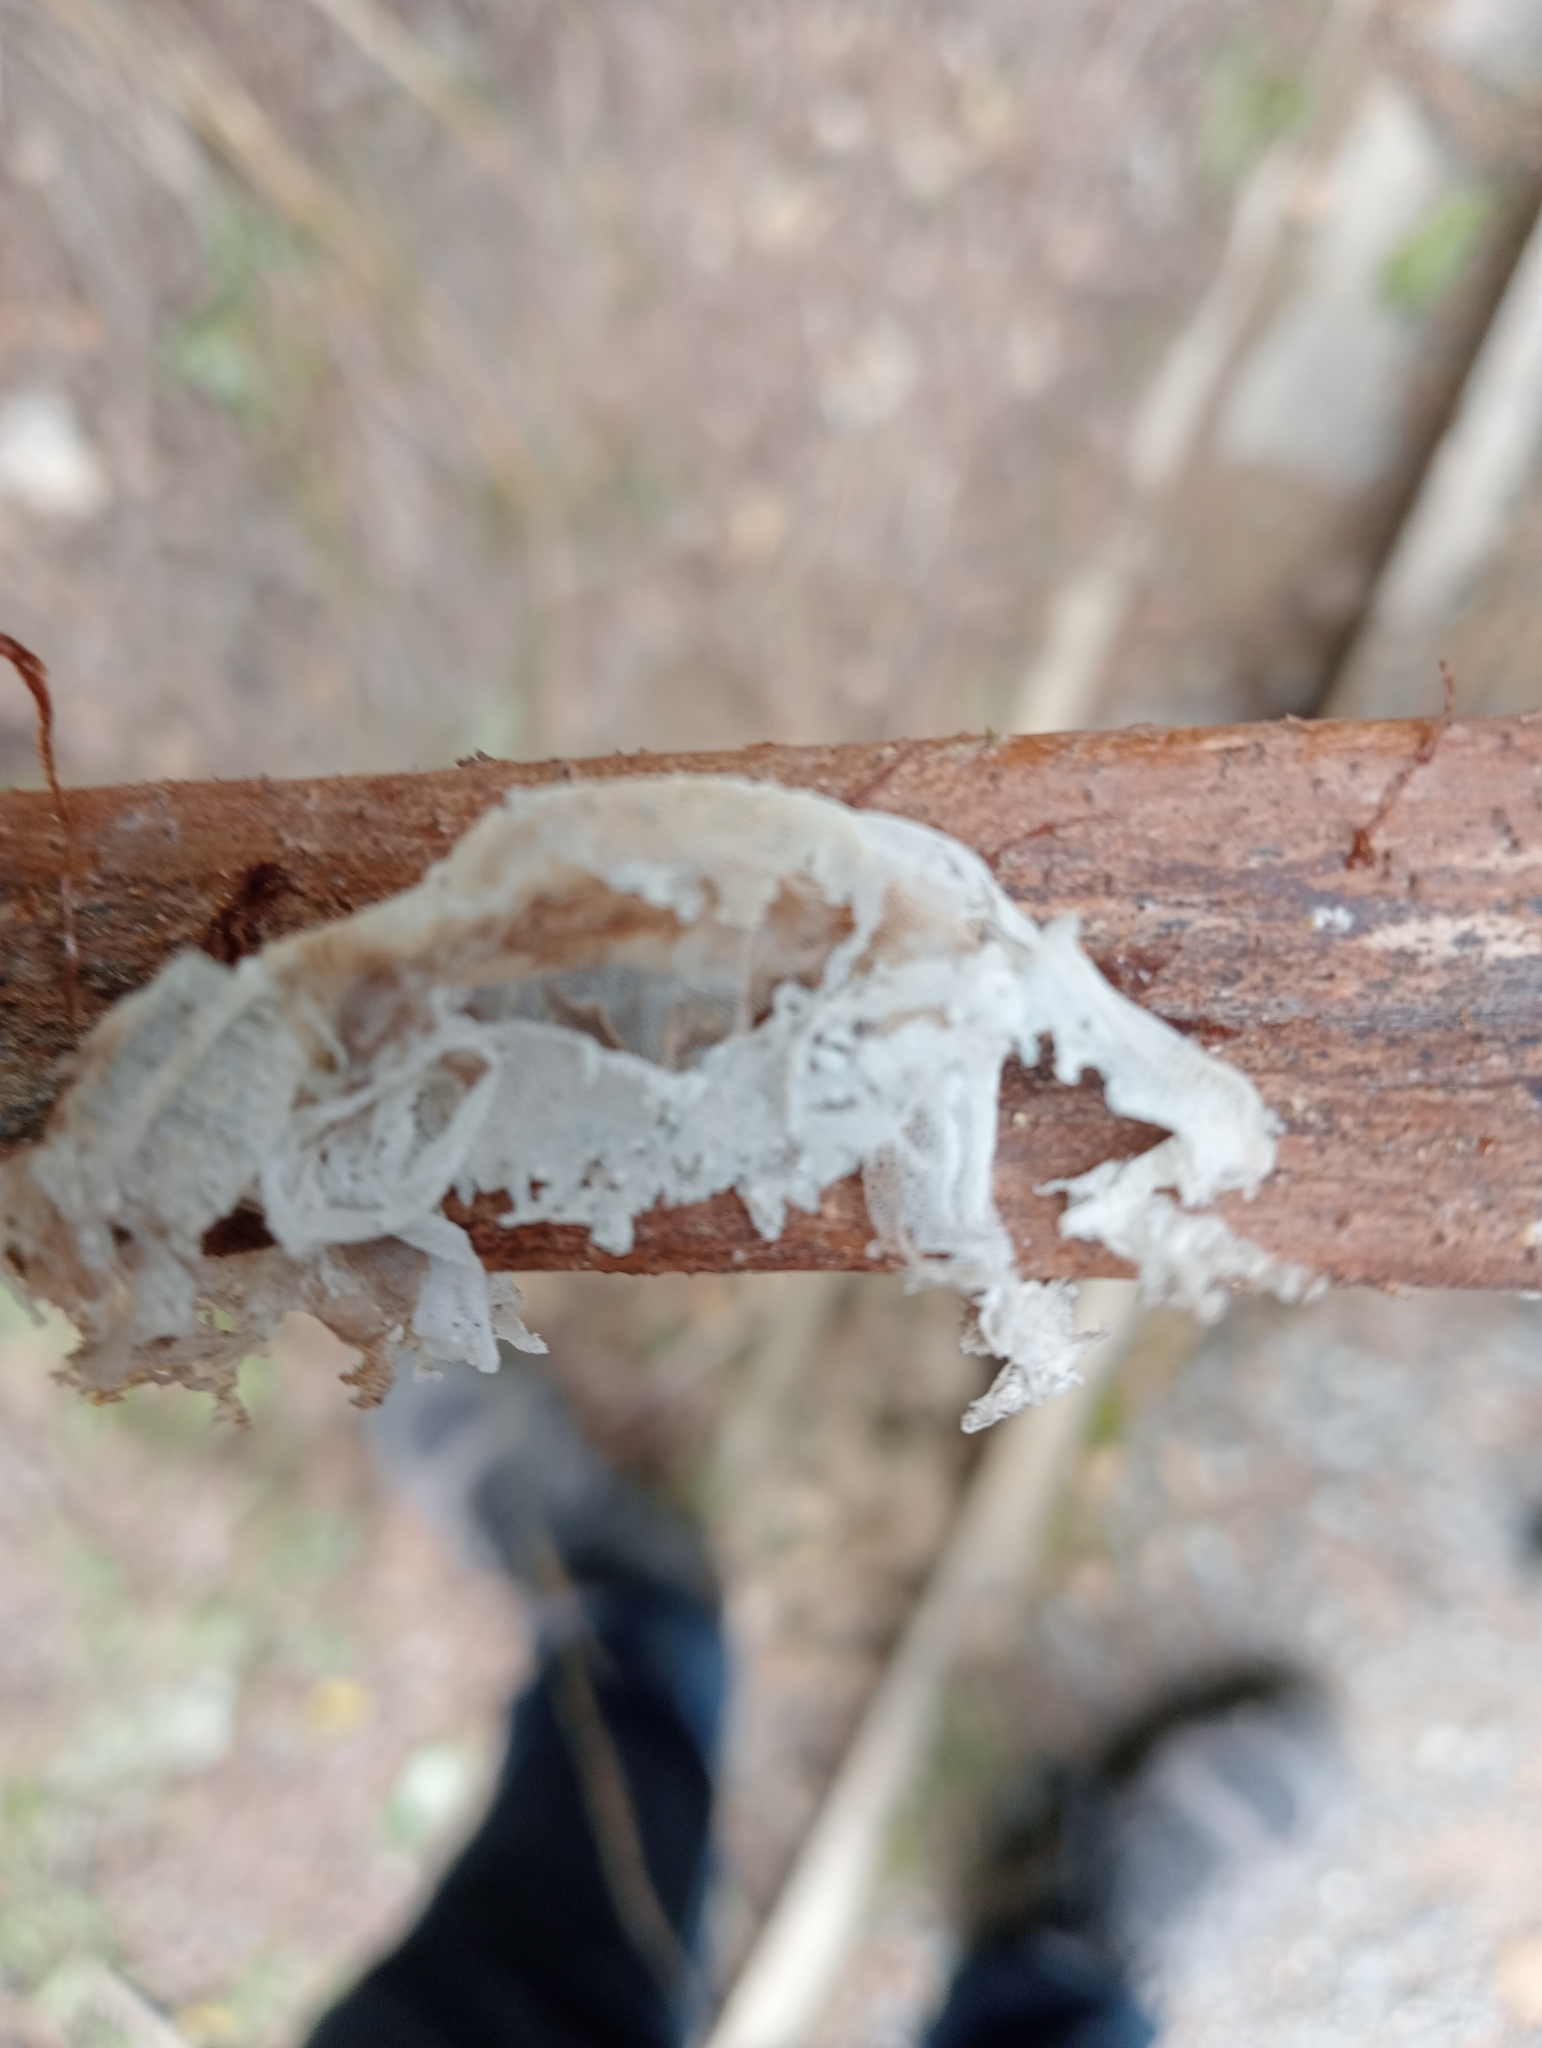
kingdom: Animalia
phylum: Chordata
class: Squamata
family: Diplodactylidae
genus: Woodworthia
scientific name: Woodworthia maculata
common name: Raukawa gecko
